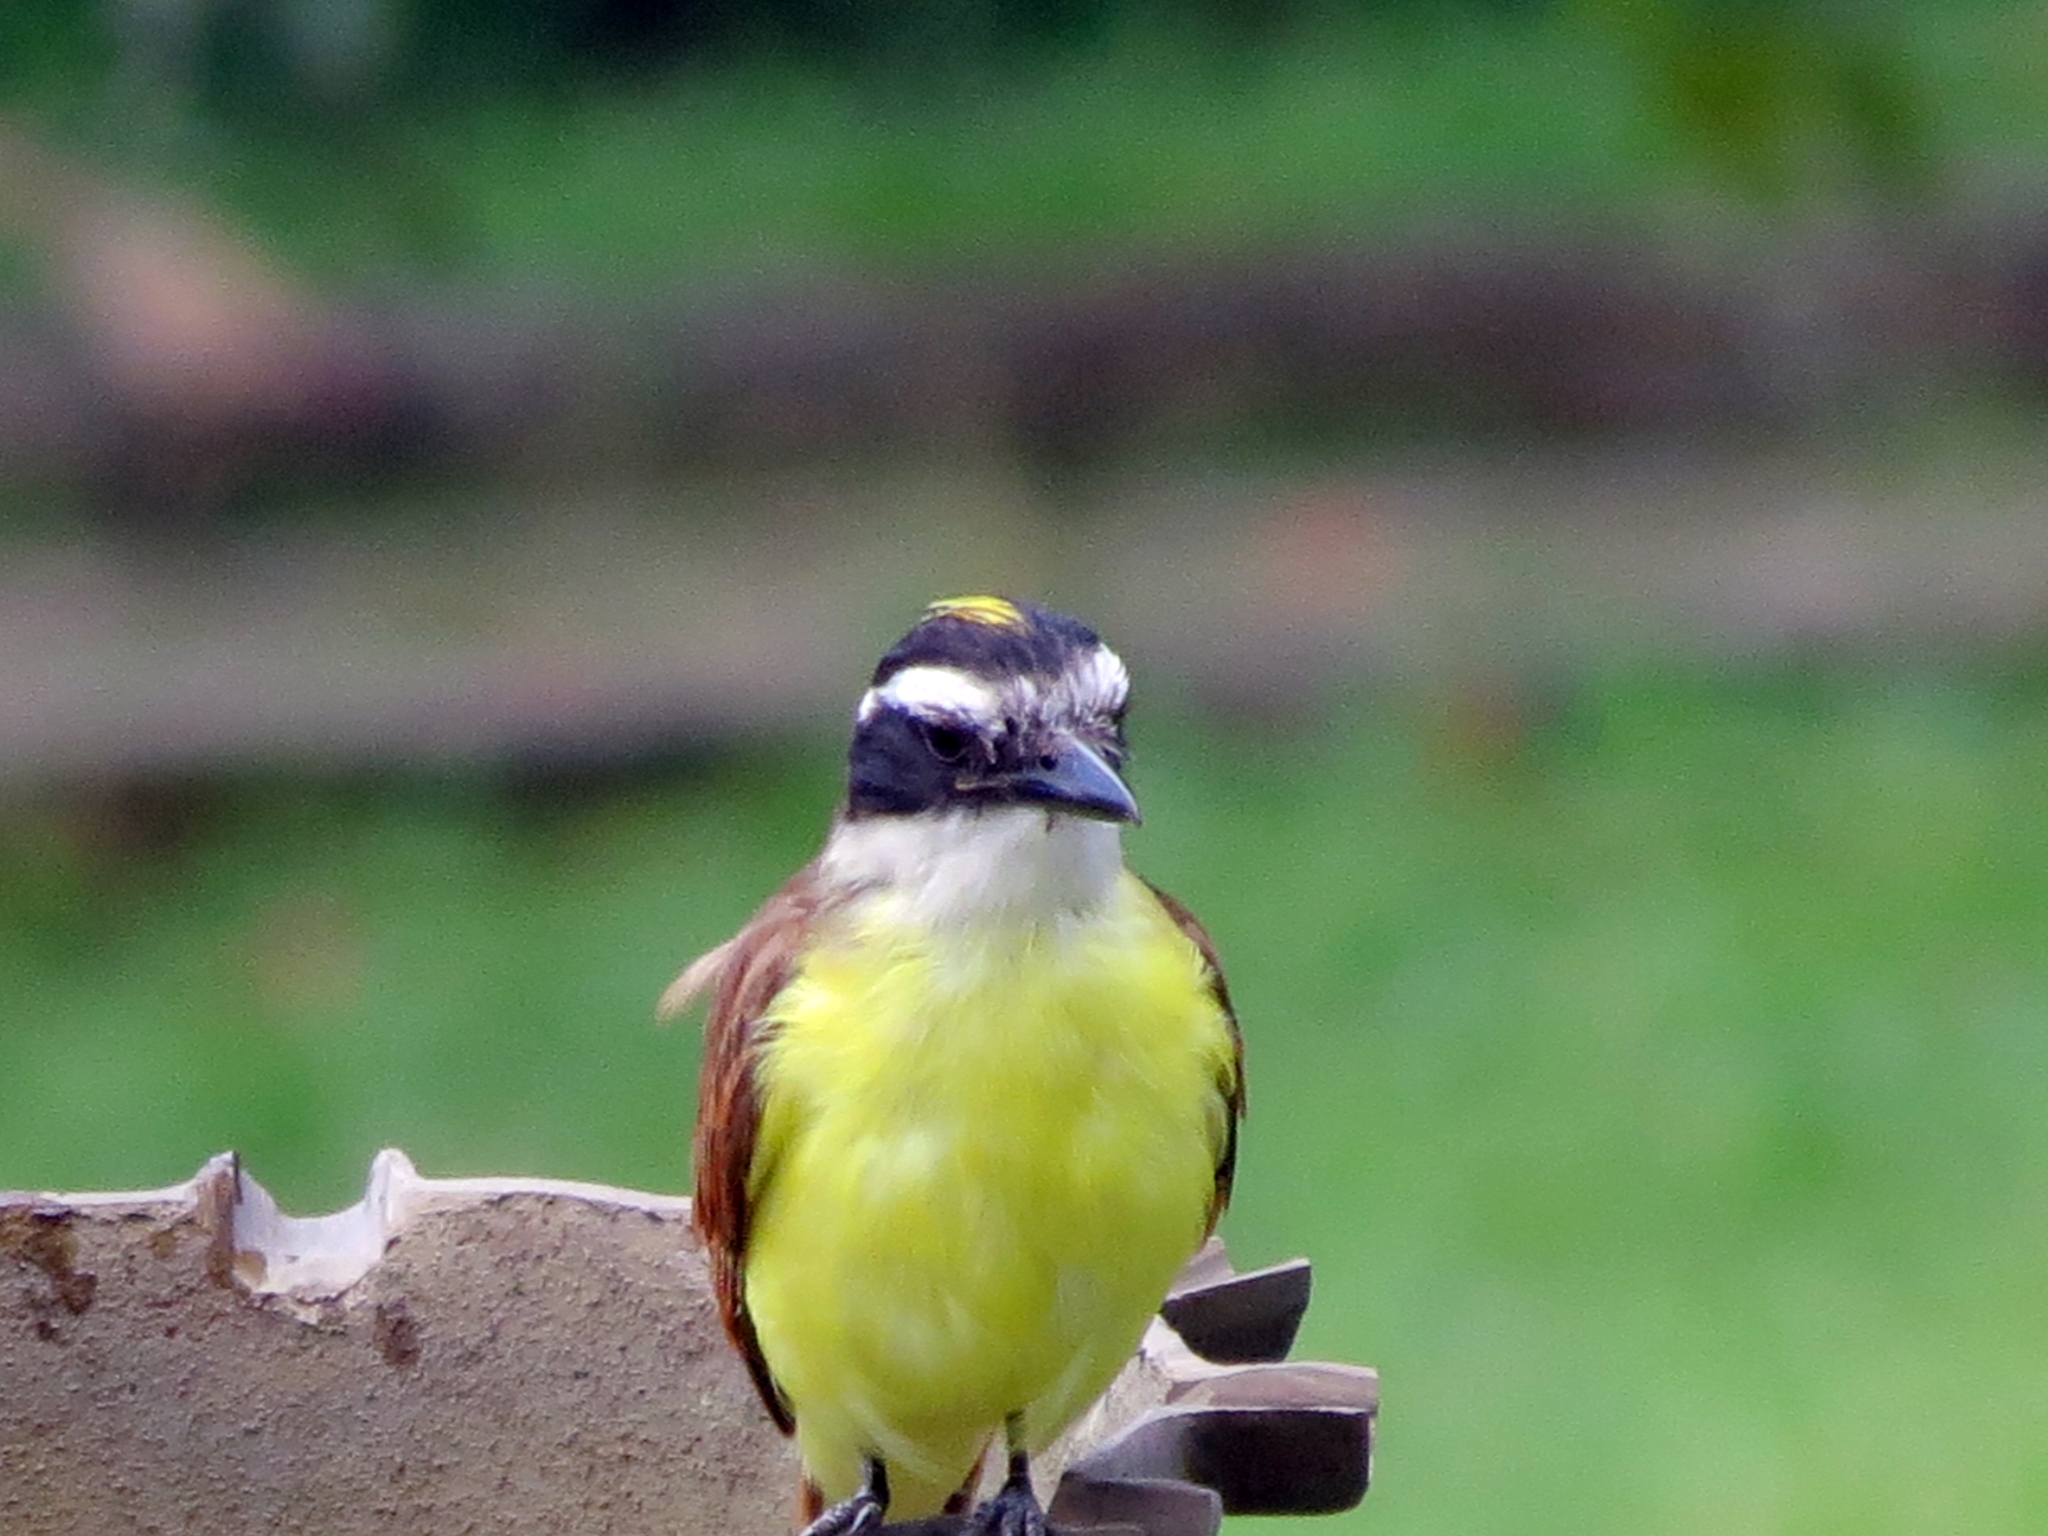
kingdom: Animalia
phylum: Chordata
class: Aves
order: Passeriformes
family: Tyrannidae
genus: Pitangus
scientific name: Pitangus sulphuratus
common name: Great kiskadee
